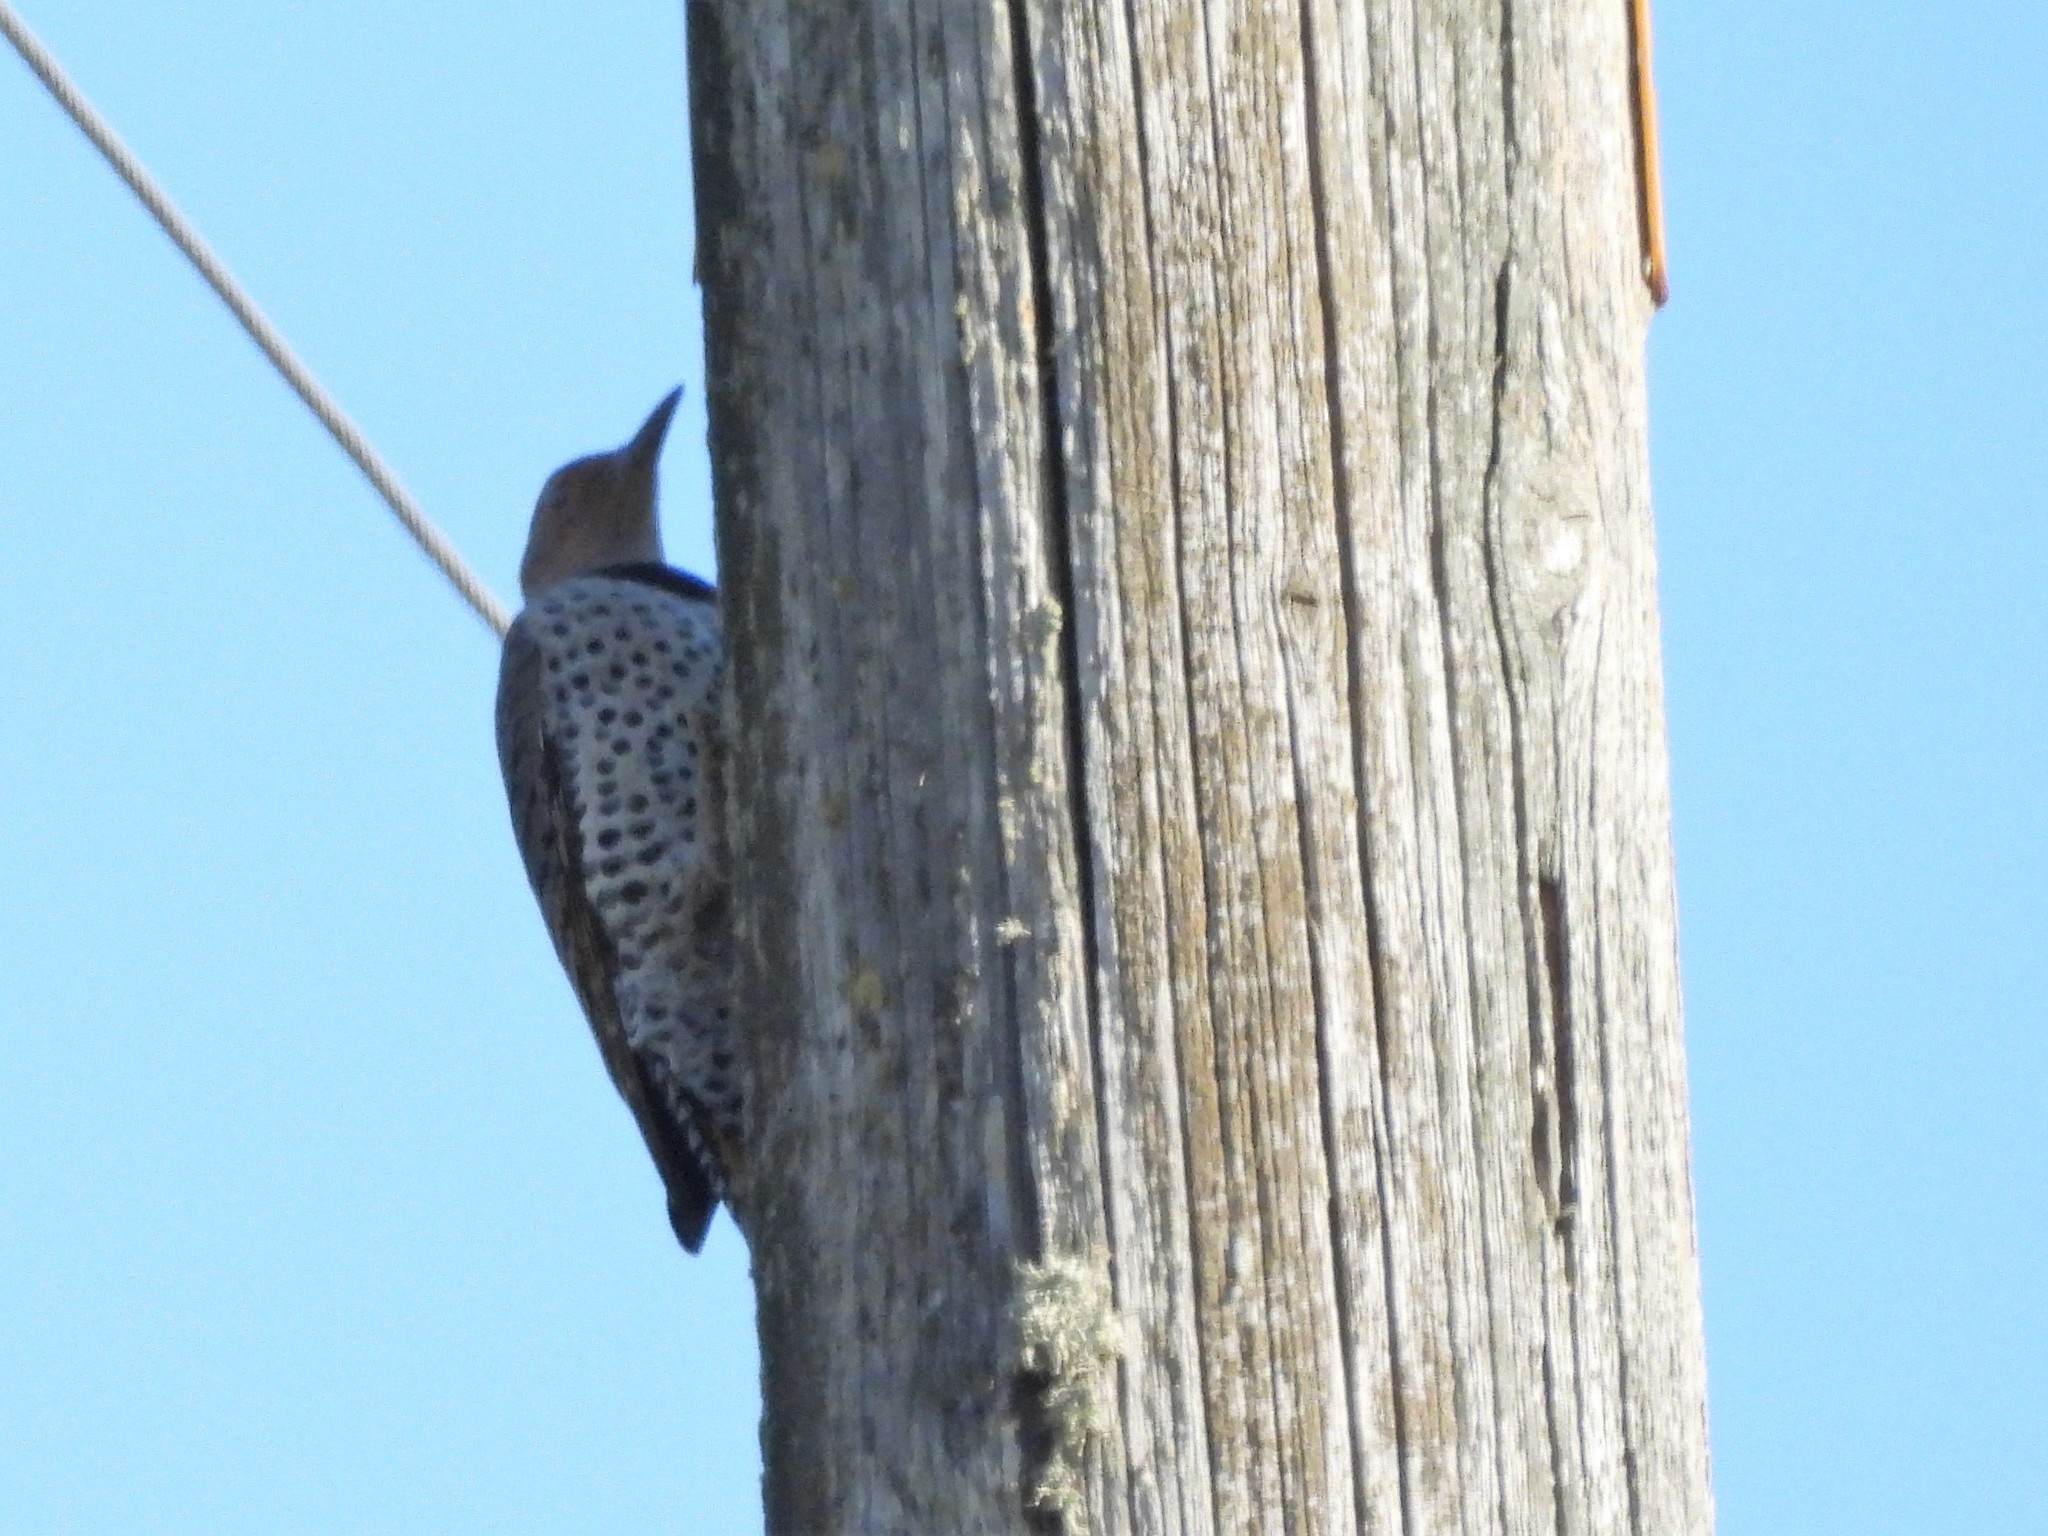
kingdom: Animalia
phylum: Chordata
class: Aves
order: Piciformes
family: Picidae
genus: Colaptes
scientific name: Colaptes auratus
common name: Northern flicker
